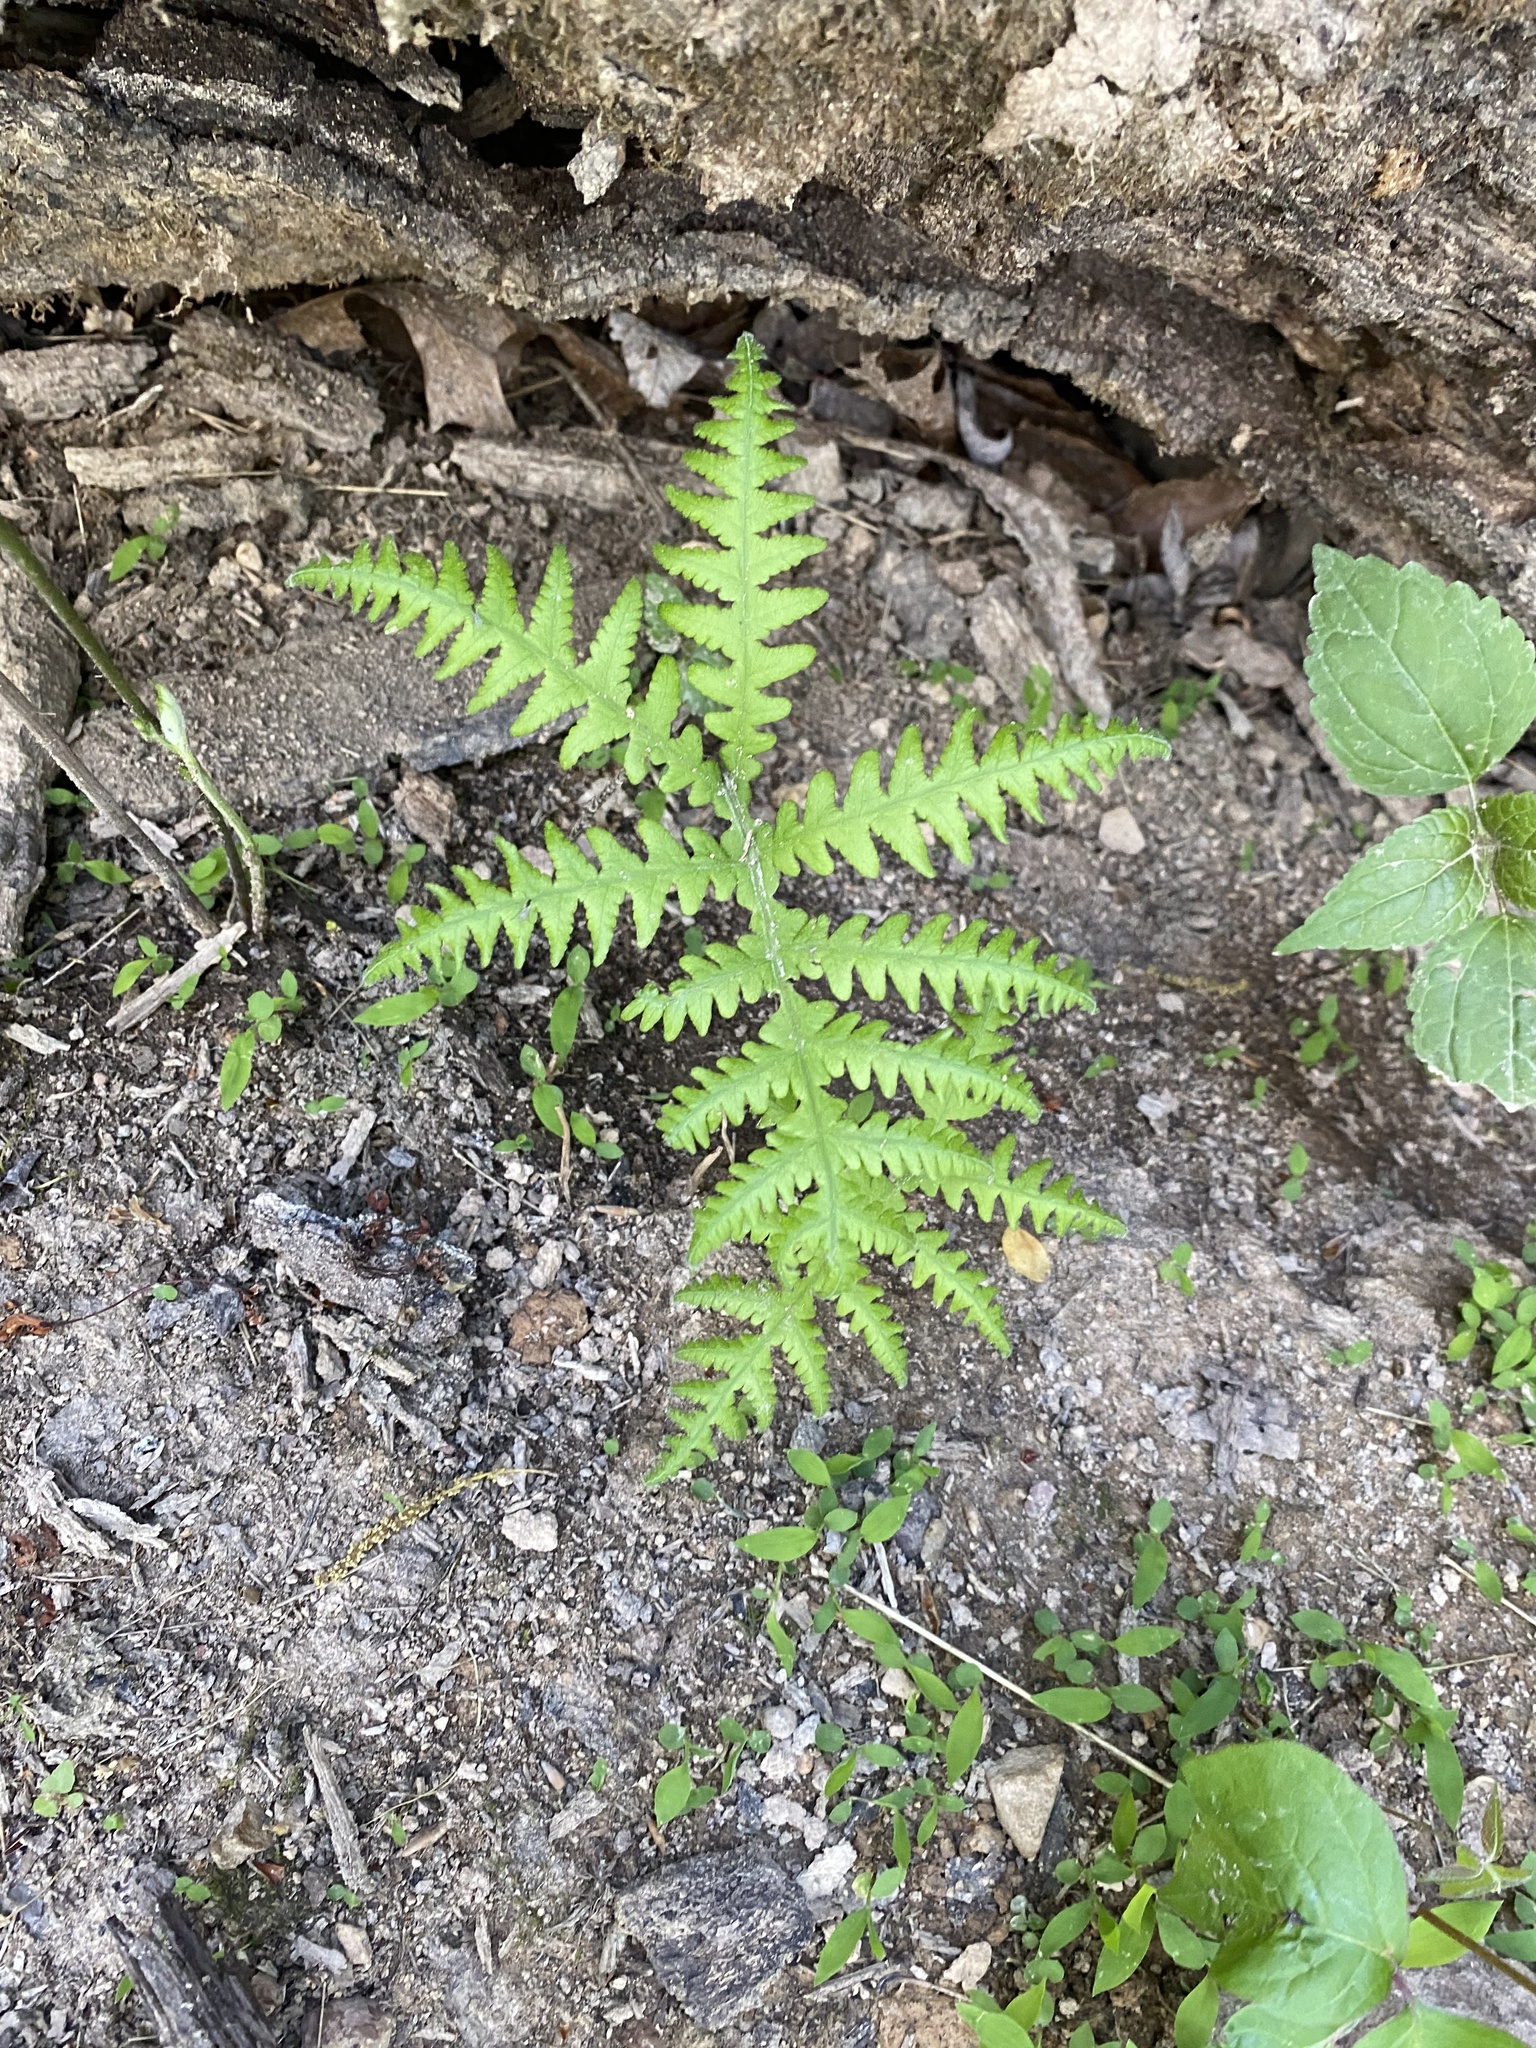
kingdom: Plantae
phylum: Tracheophyta
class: Polypodiopsida
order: Polypodiales
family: Thelypteridaceae
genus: Phegopteris
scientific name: Phegopteris hexagonoptera
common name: Broad beech fern
